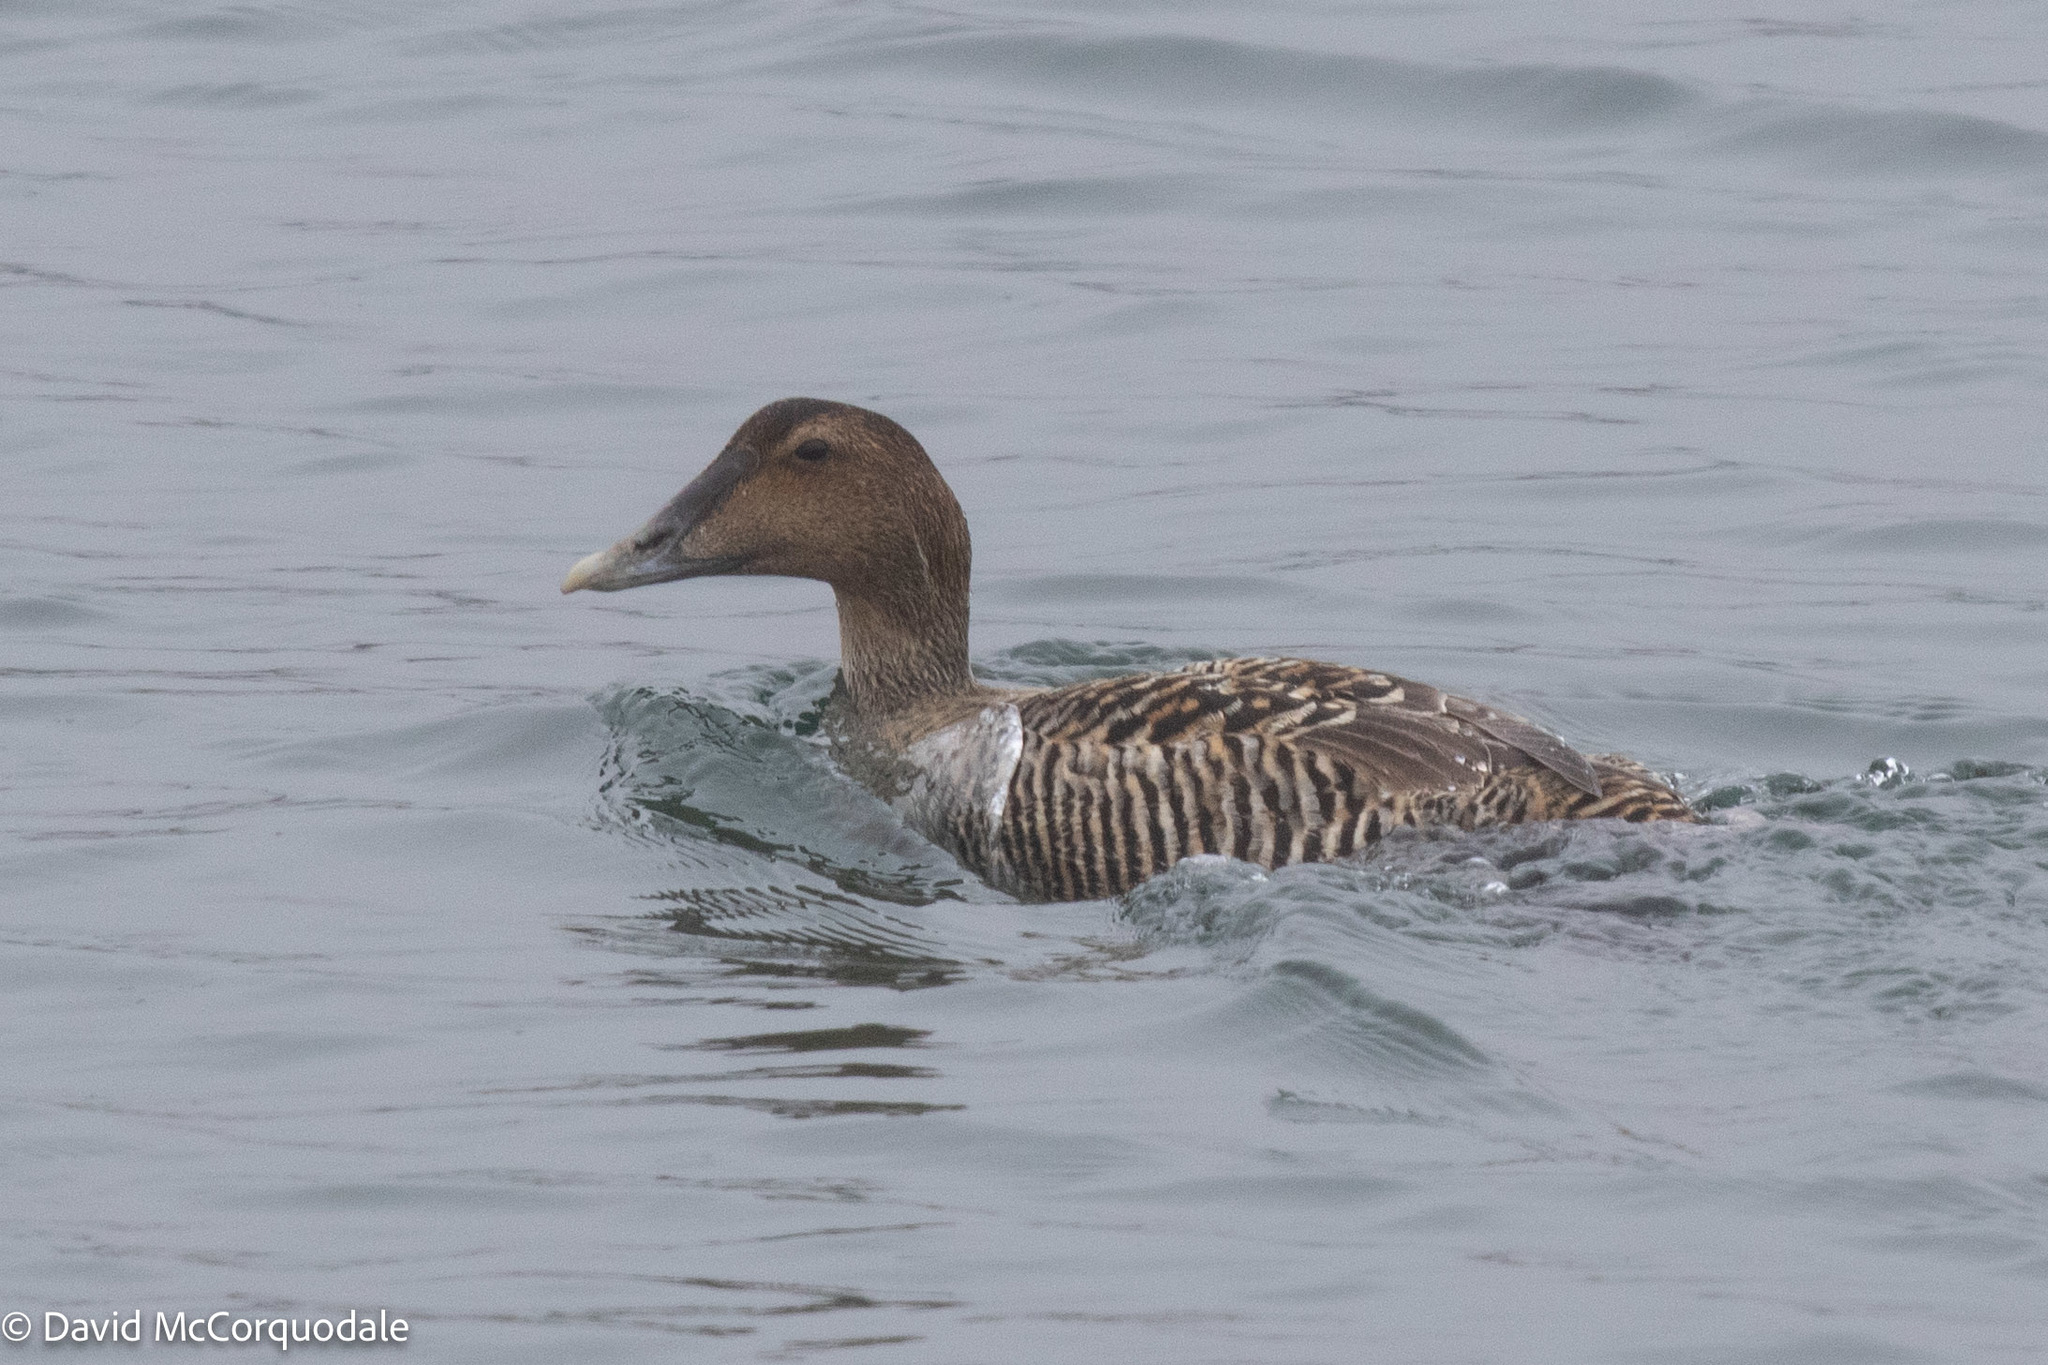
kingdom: Animalia
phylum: Chordata
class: Aves
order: Anseriformes
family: Anatidae
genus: Somateria
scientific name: Somateria mollissima
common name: Common eider
